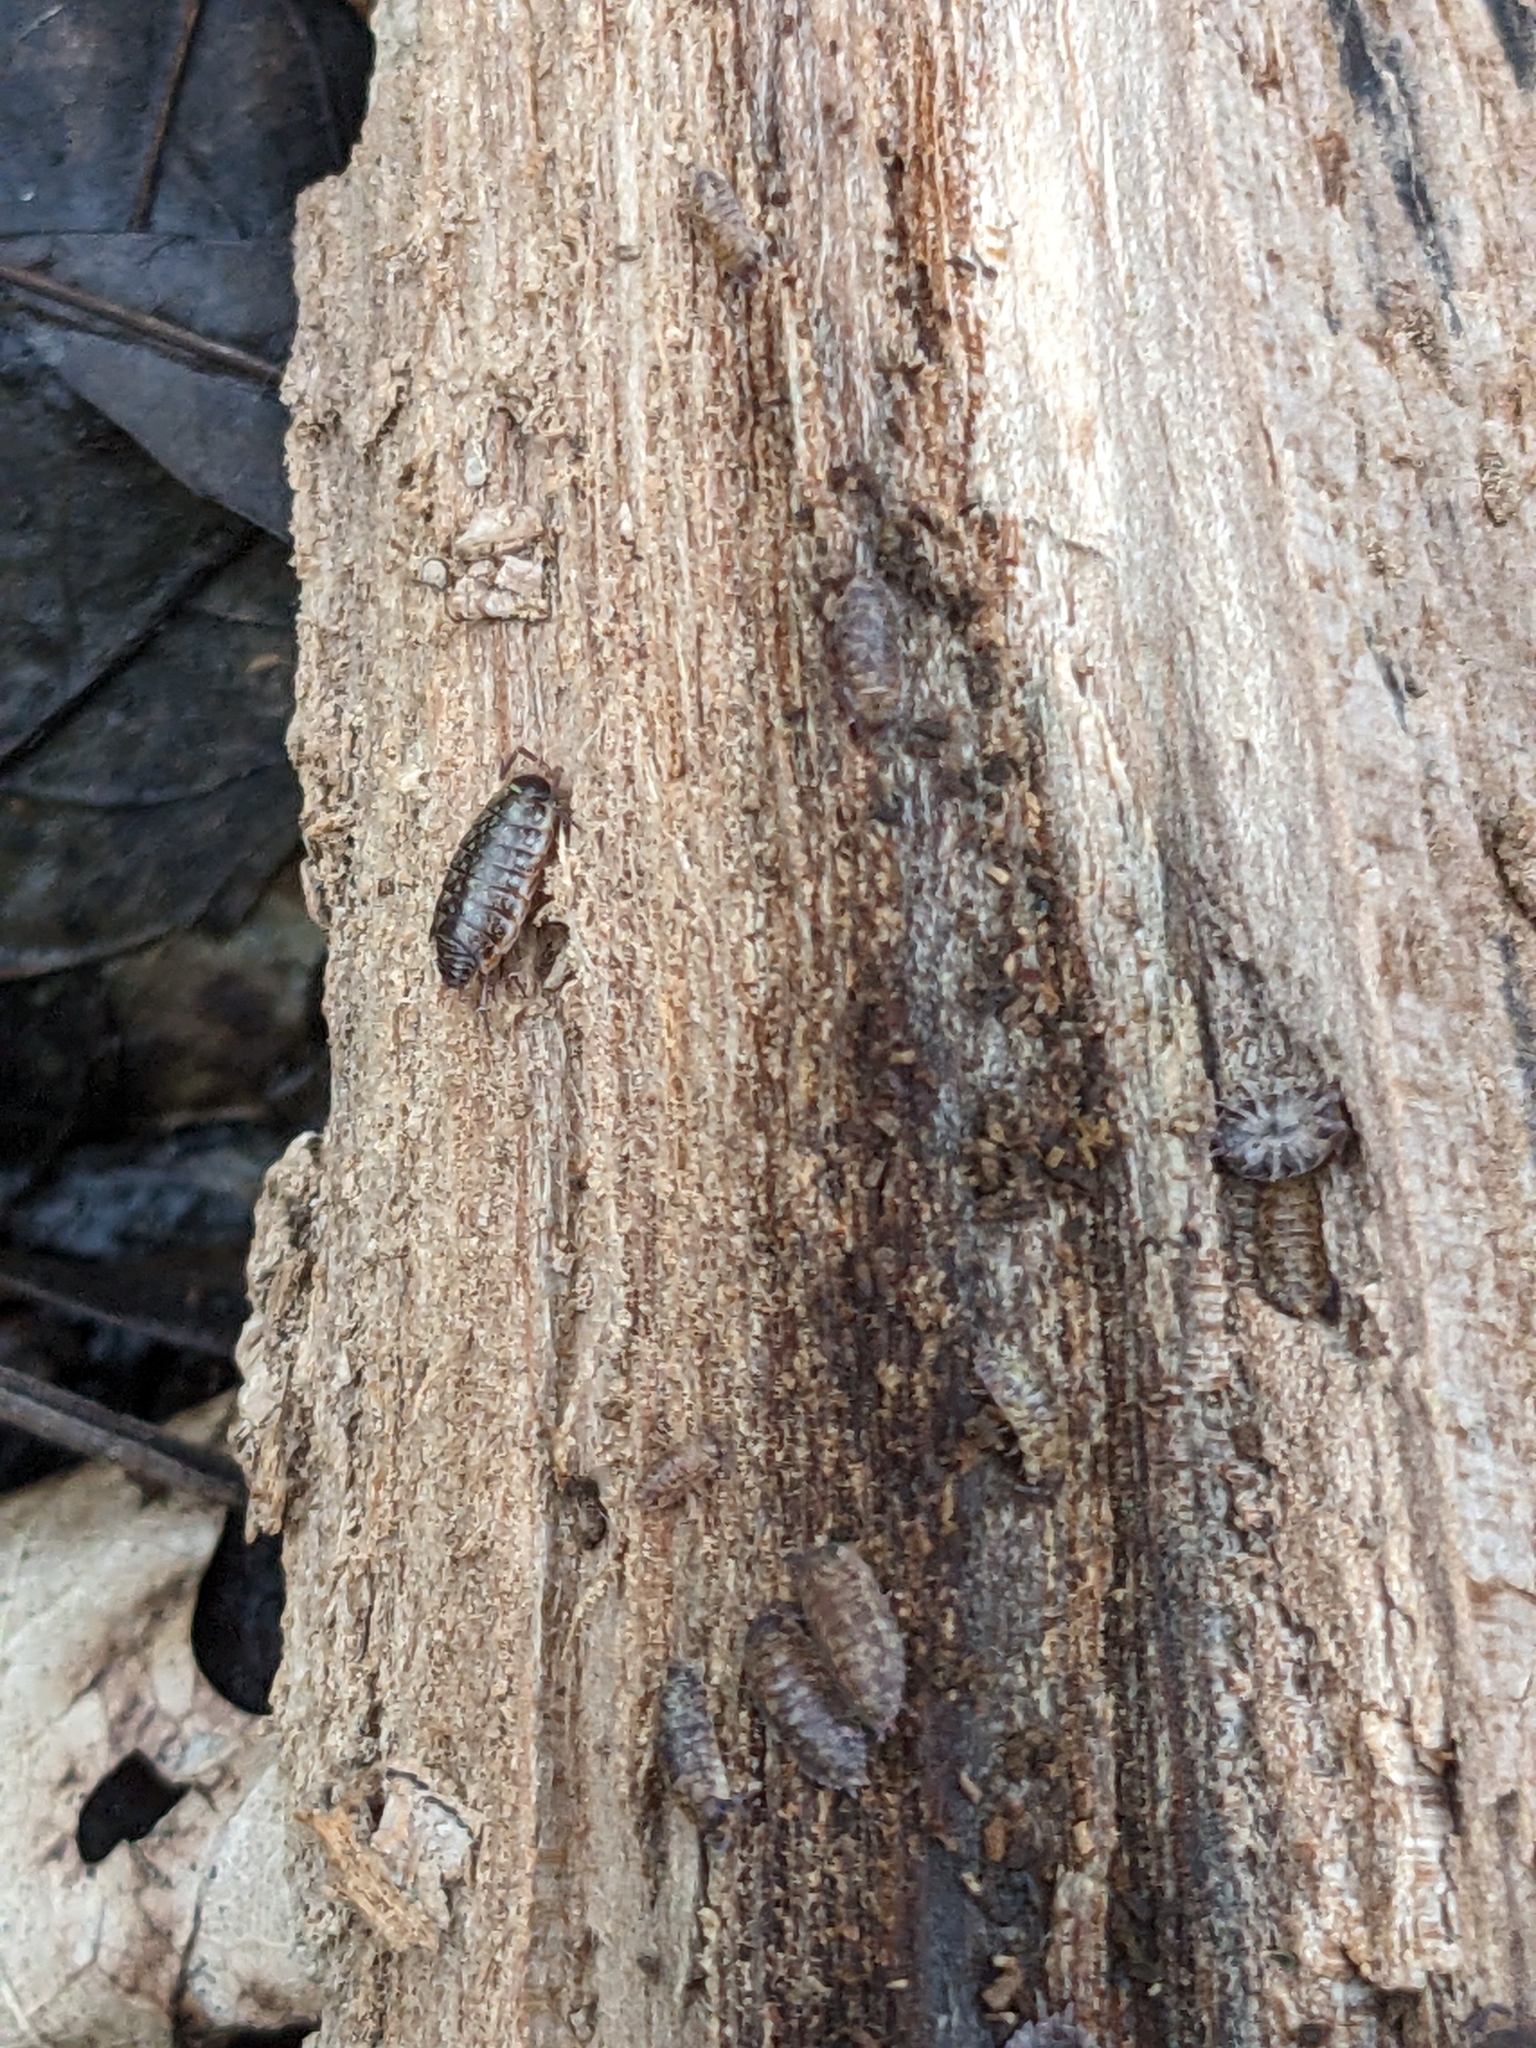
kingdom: Animalia
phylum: Arthropoda
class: Malacostraca
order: Isopoda
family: Philosciidae
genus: Philoscia
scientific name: Philoscia muscorum
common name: Common striped woodlouse
